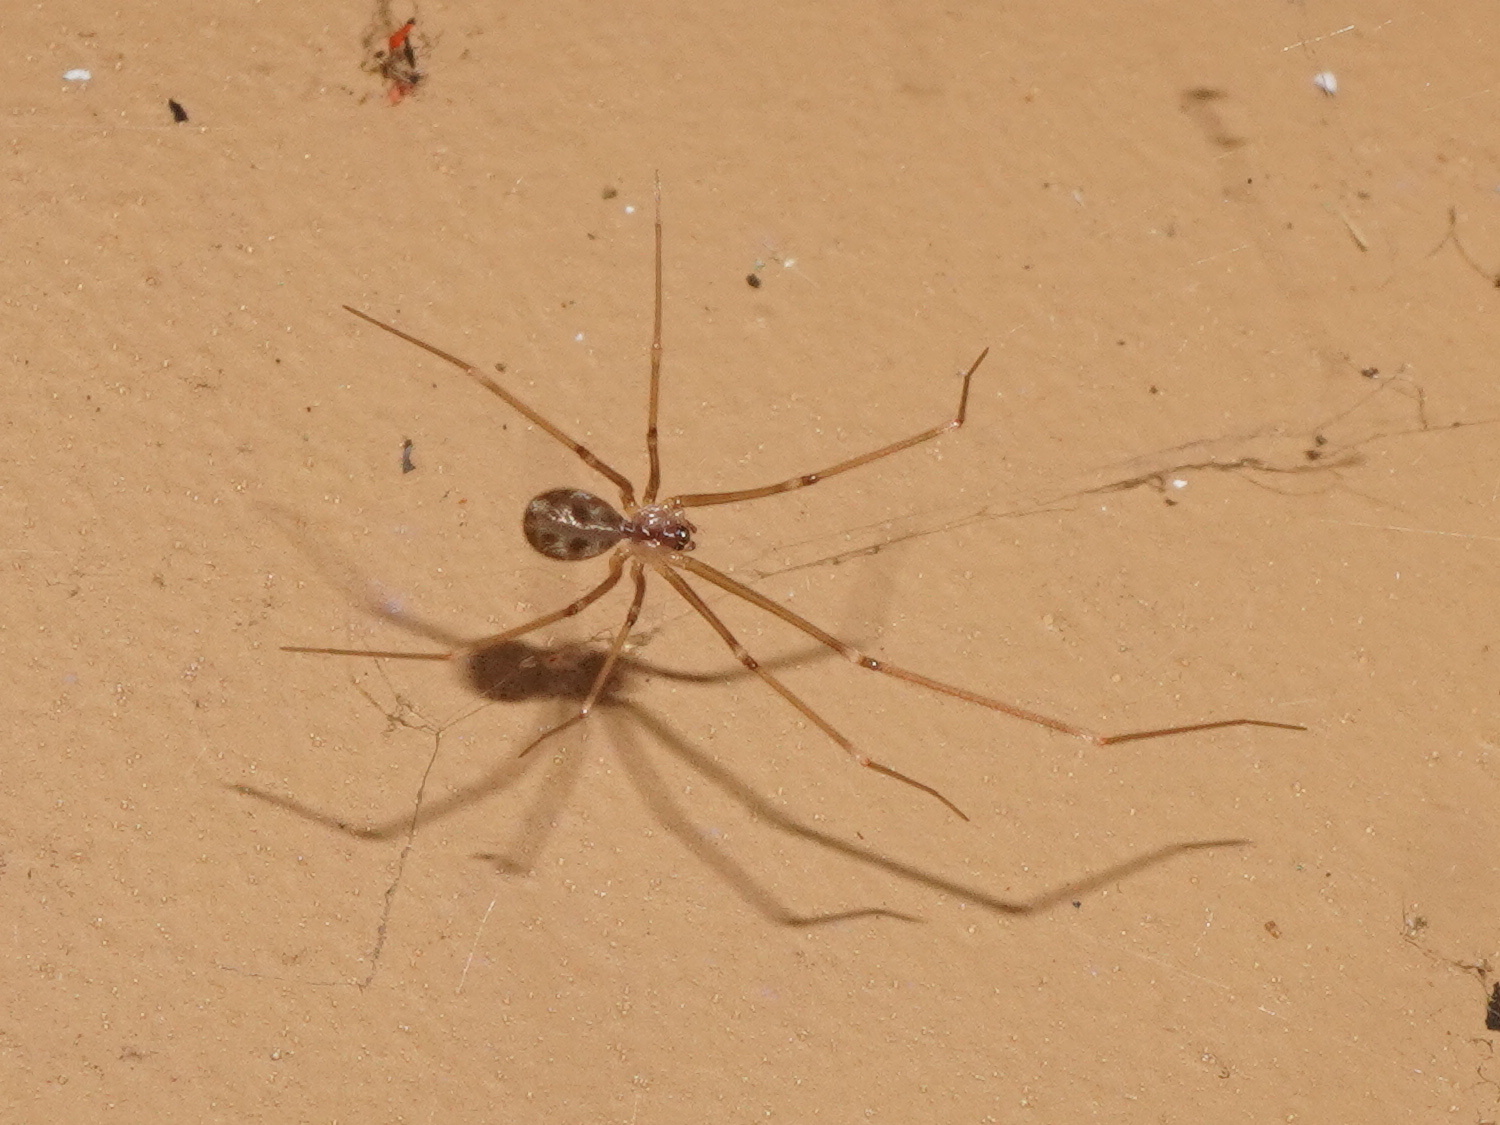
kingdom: Animalia
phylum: Arthropoda
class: Arachnida
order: Araneae
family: Pholcidae
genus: Hoplopholcus
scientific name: Hoplopholcus forskali
